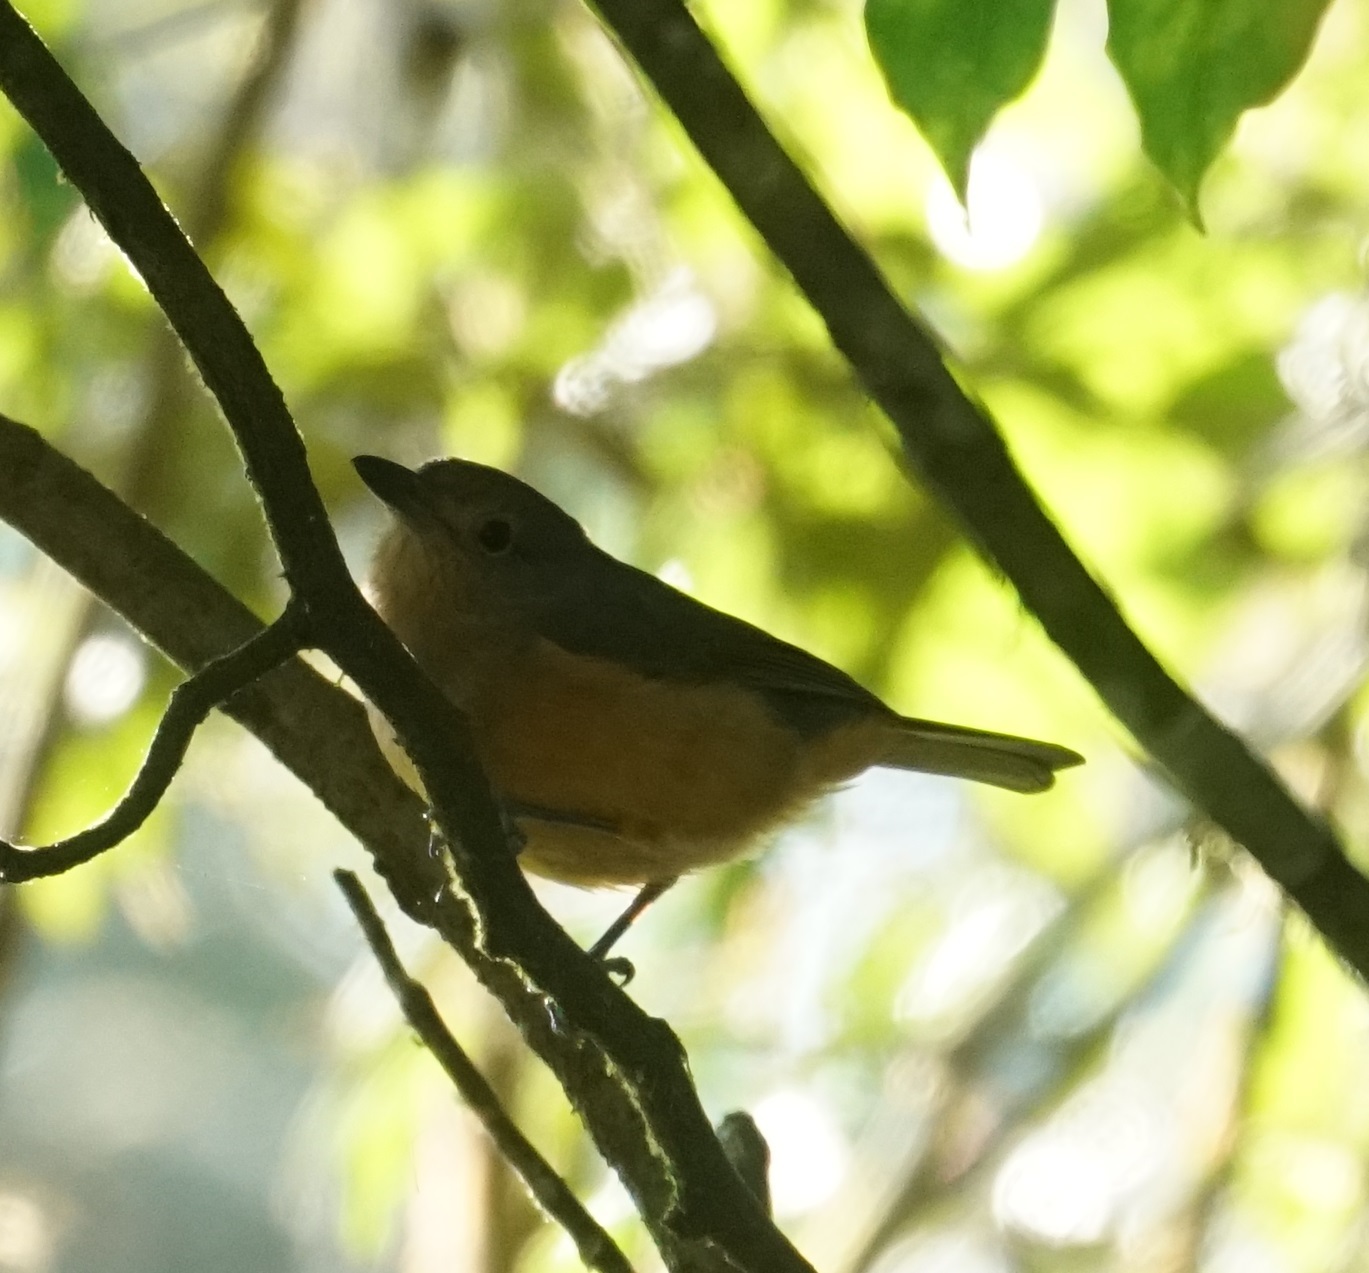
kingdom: Animalia
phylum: Chordata
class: Aves
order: Passeriformes
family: Pachycephalidae
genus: Colluricincla
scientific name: Colluricincla rufogaster
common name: Rufous shrikethrush
